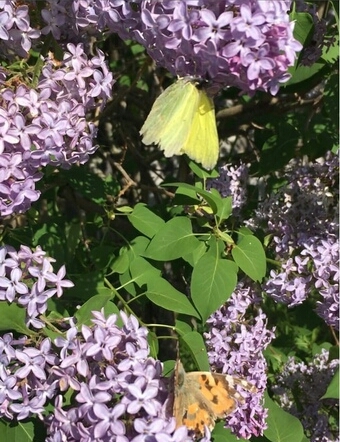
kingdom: Animalia
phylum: Arthropoda
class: Insecta
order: Lepidoptera
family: Nymphalidae
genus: Vanessa
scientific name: Vanessa cardui
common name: Painted lady
